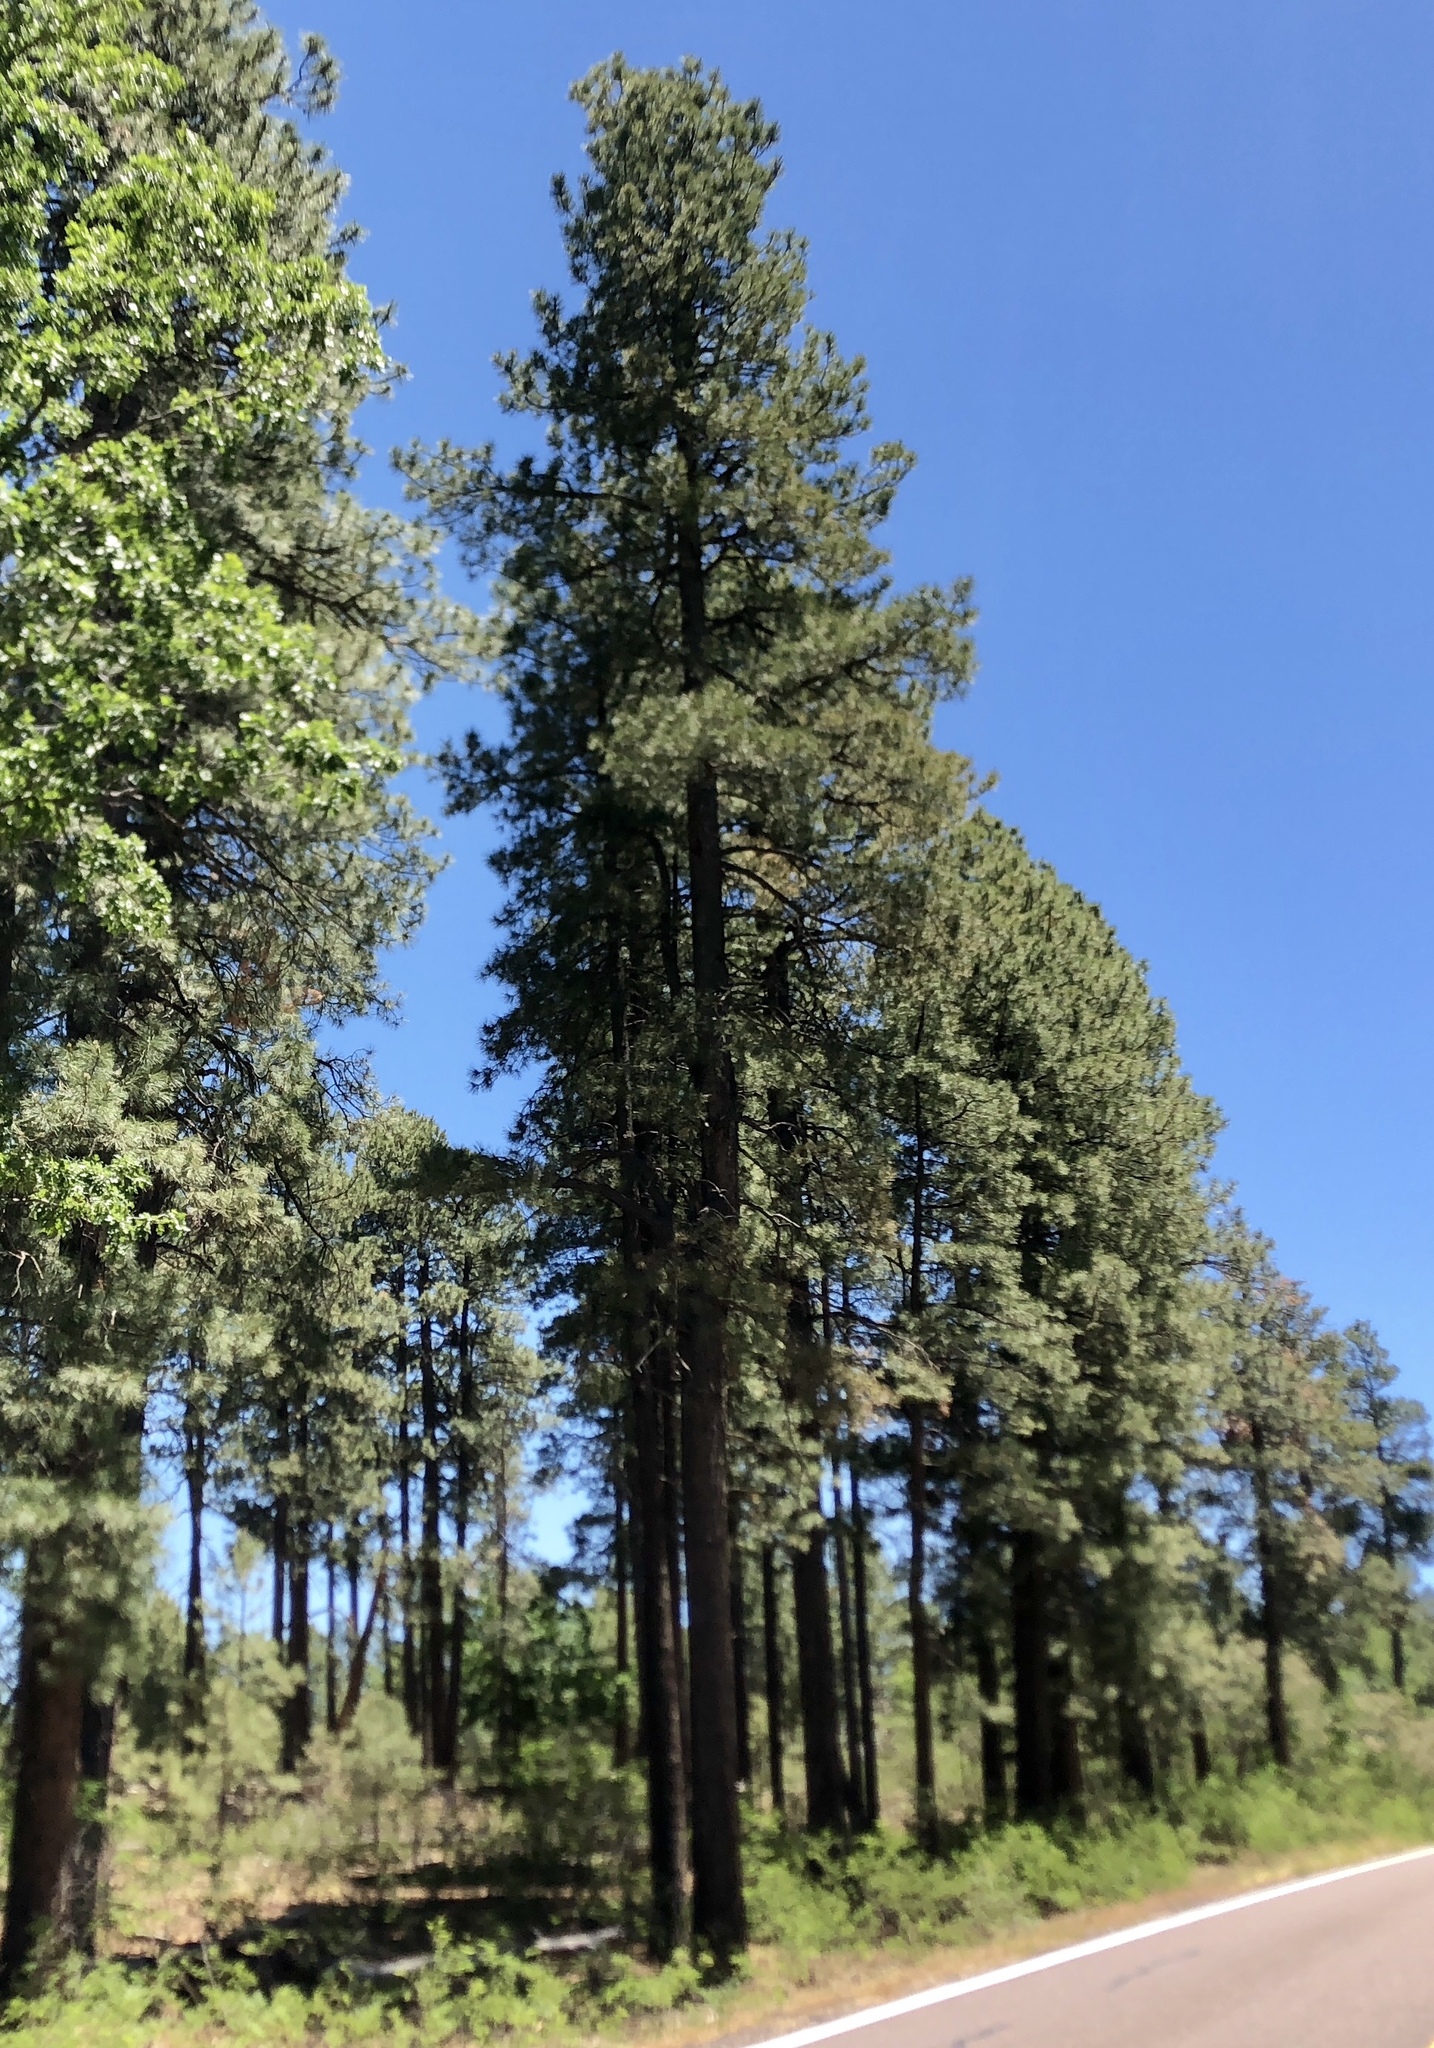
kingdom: Plantae
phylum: Tracheophyta
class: Pinopsida
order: Pinales
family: Pinaceae
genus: Pinus
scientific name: Pinus ponderosa
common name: Western yellow-pine
